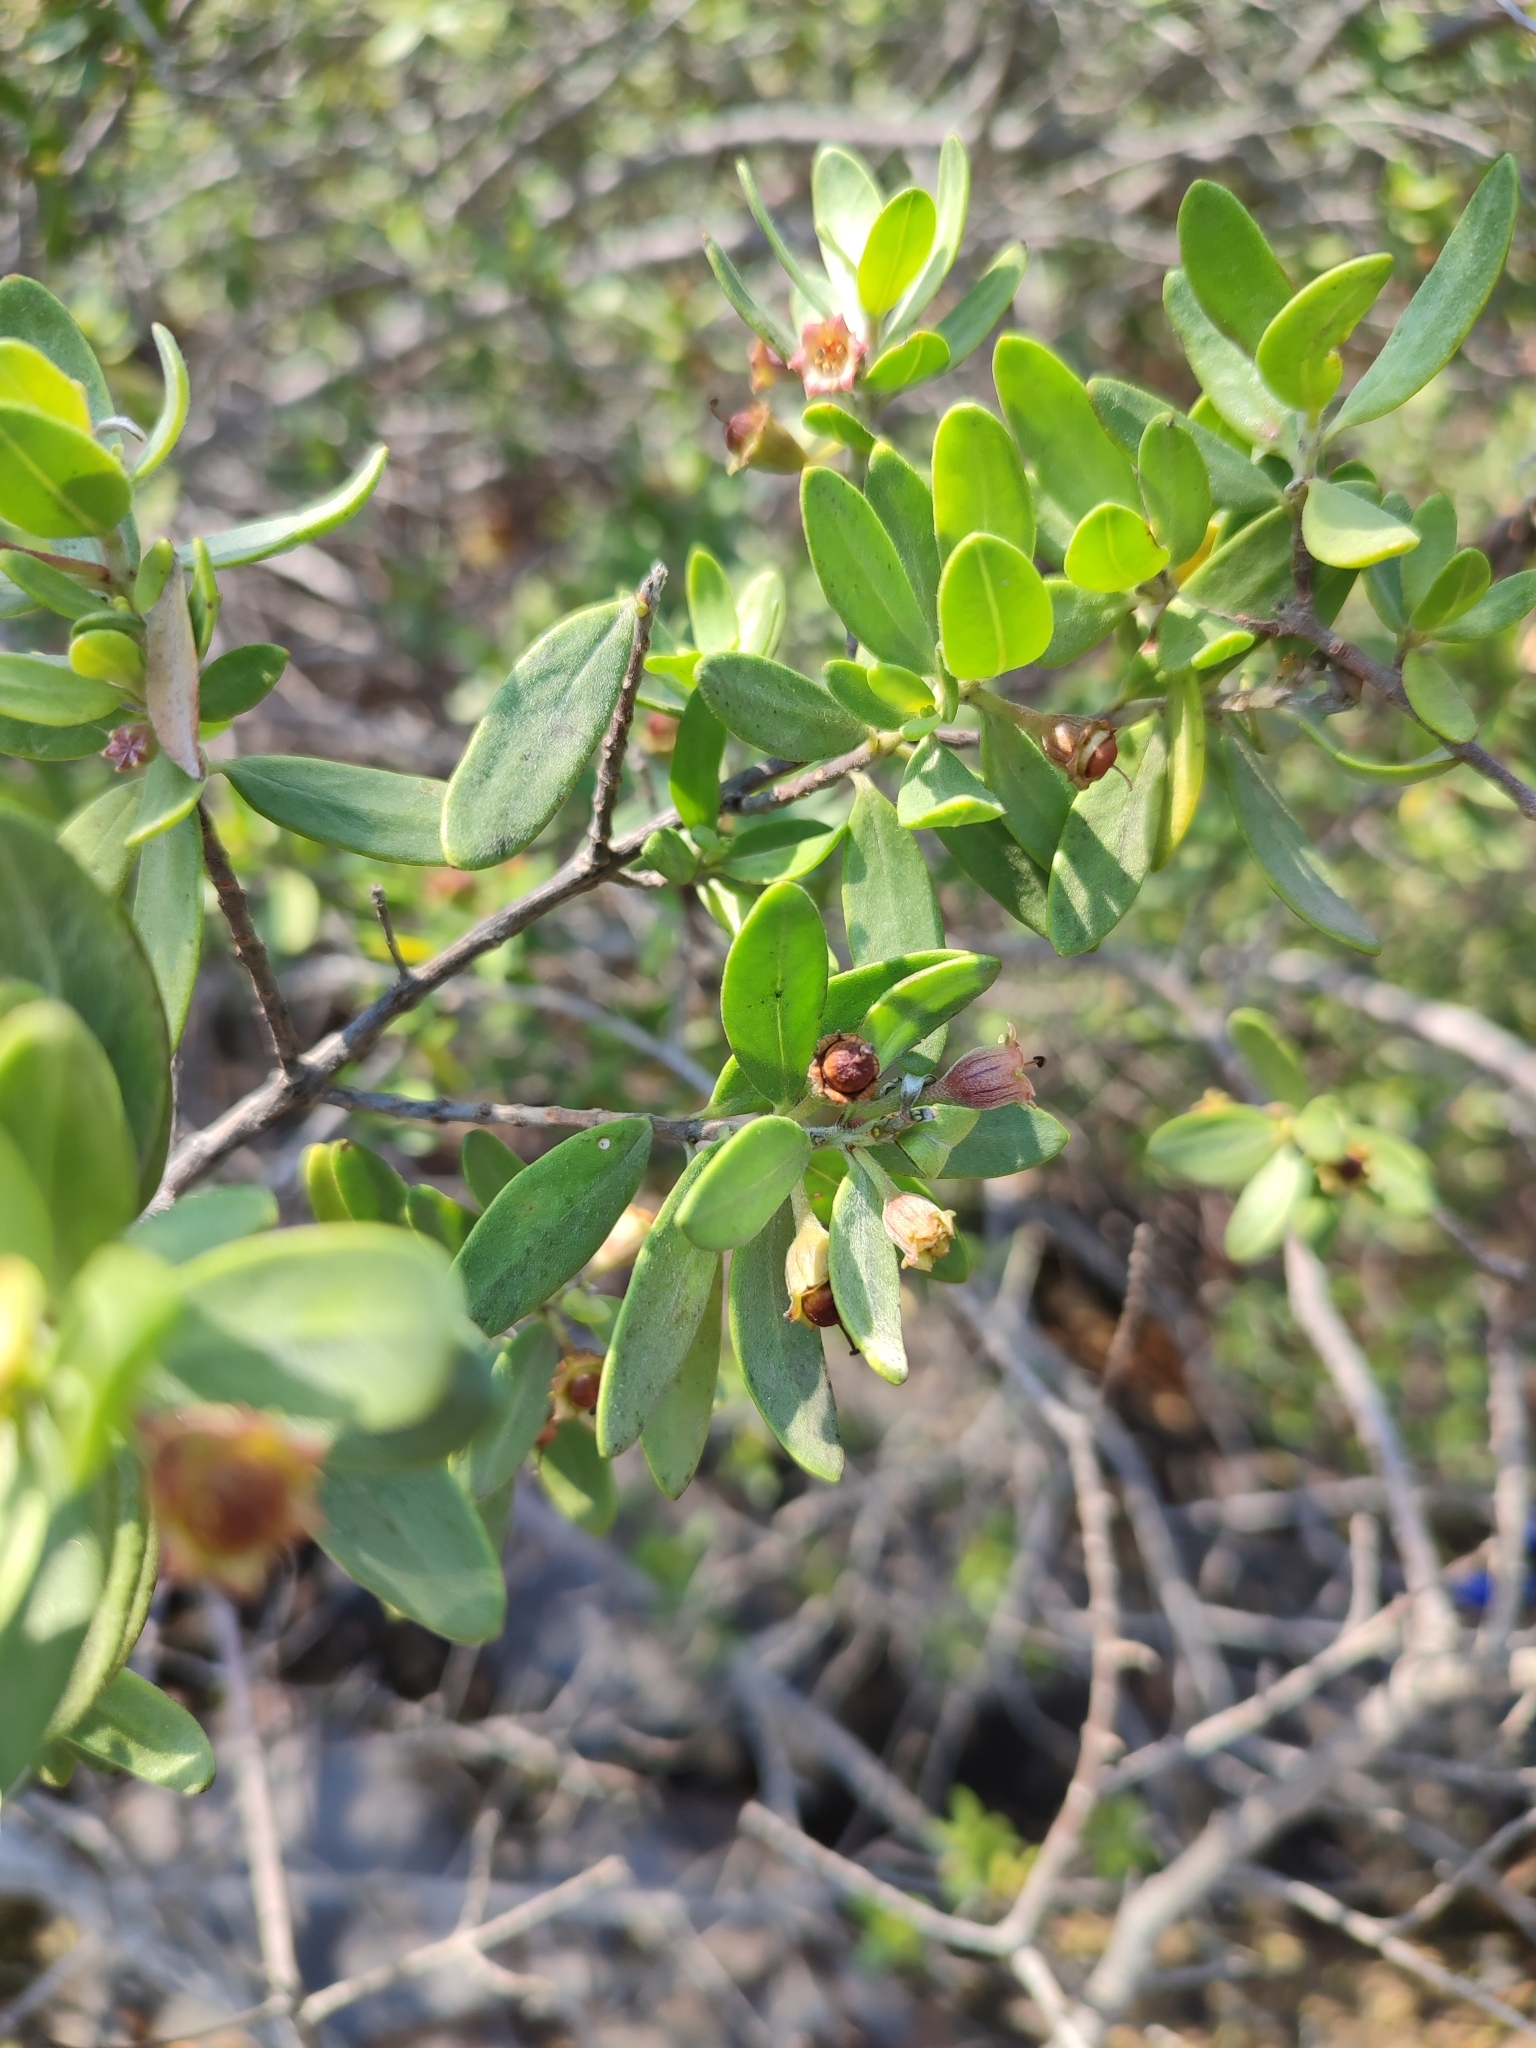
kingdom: Plantae
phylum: Tracheophyta
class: Magnoliopsida
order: Myrtales
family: Lythraceae
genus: Pemphis
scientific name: Pemphis acidula
